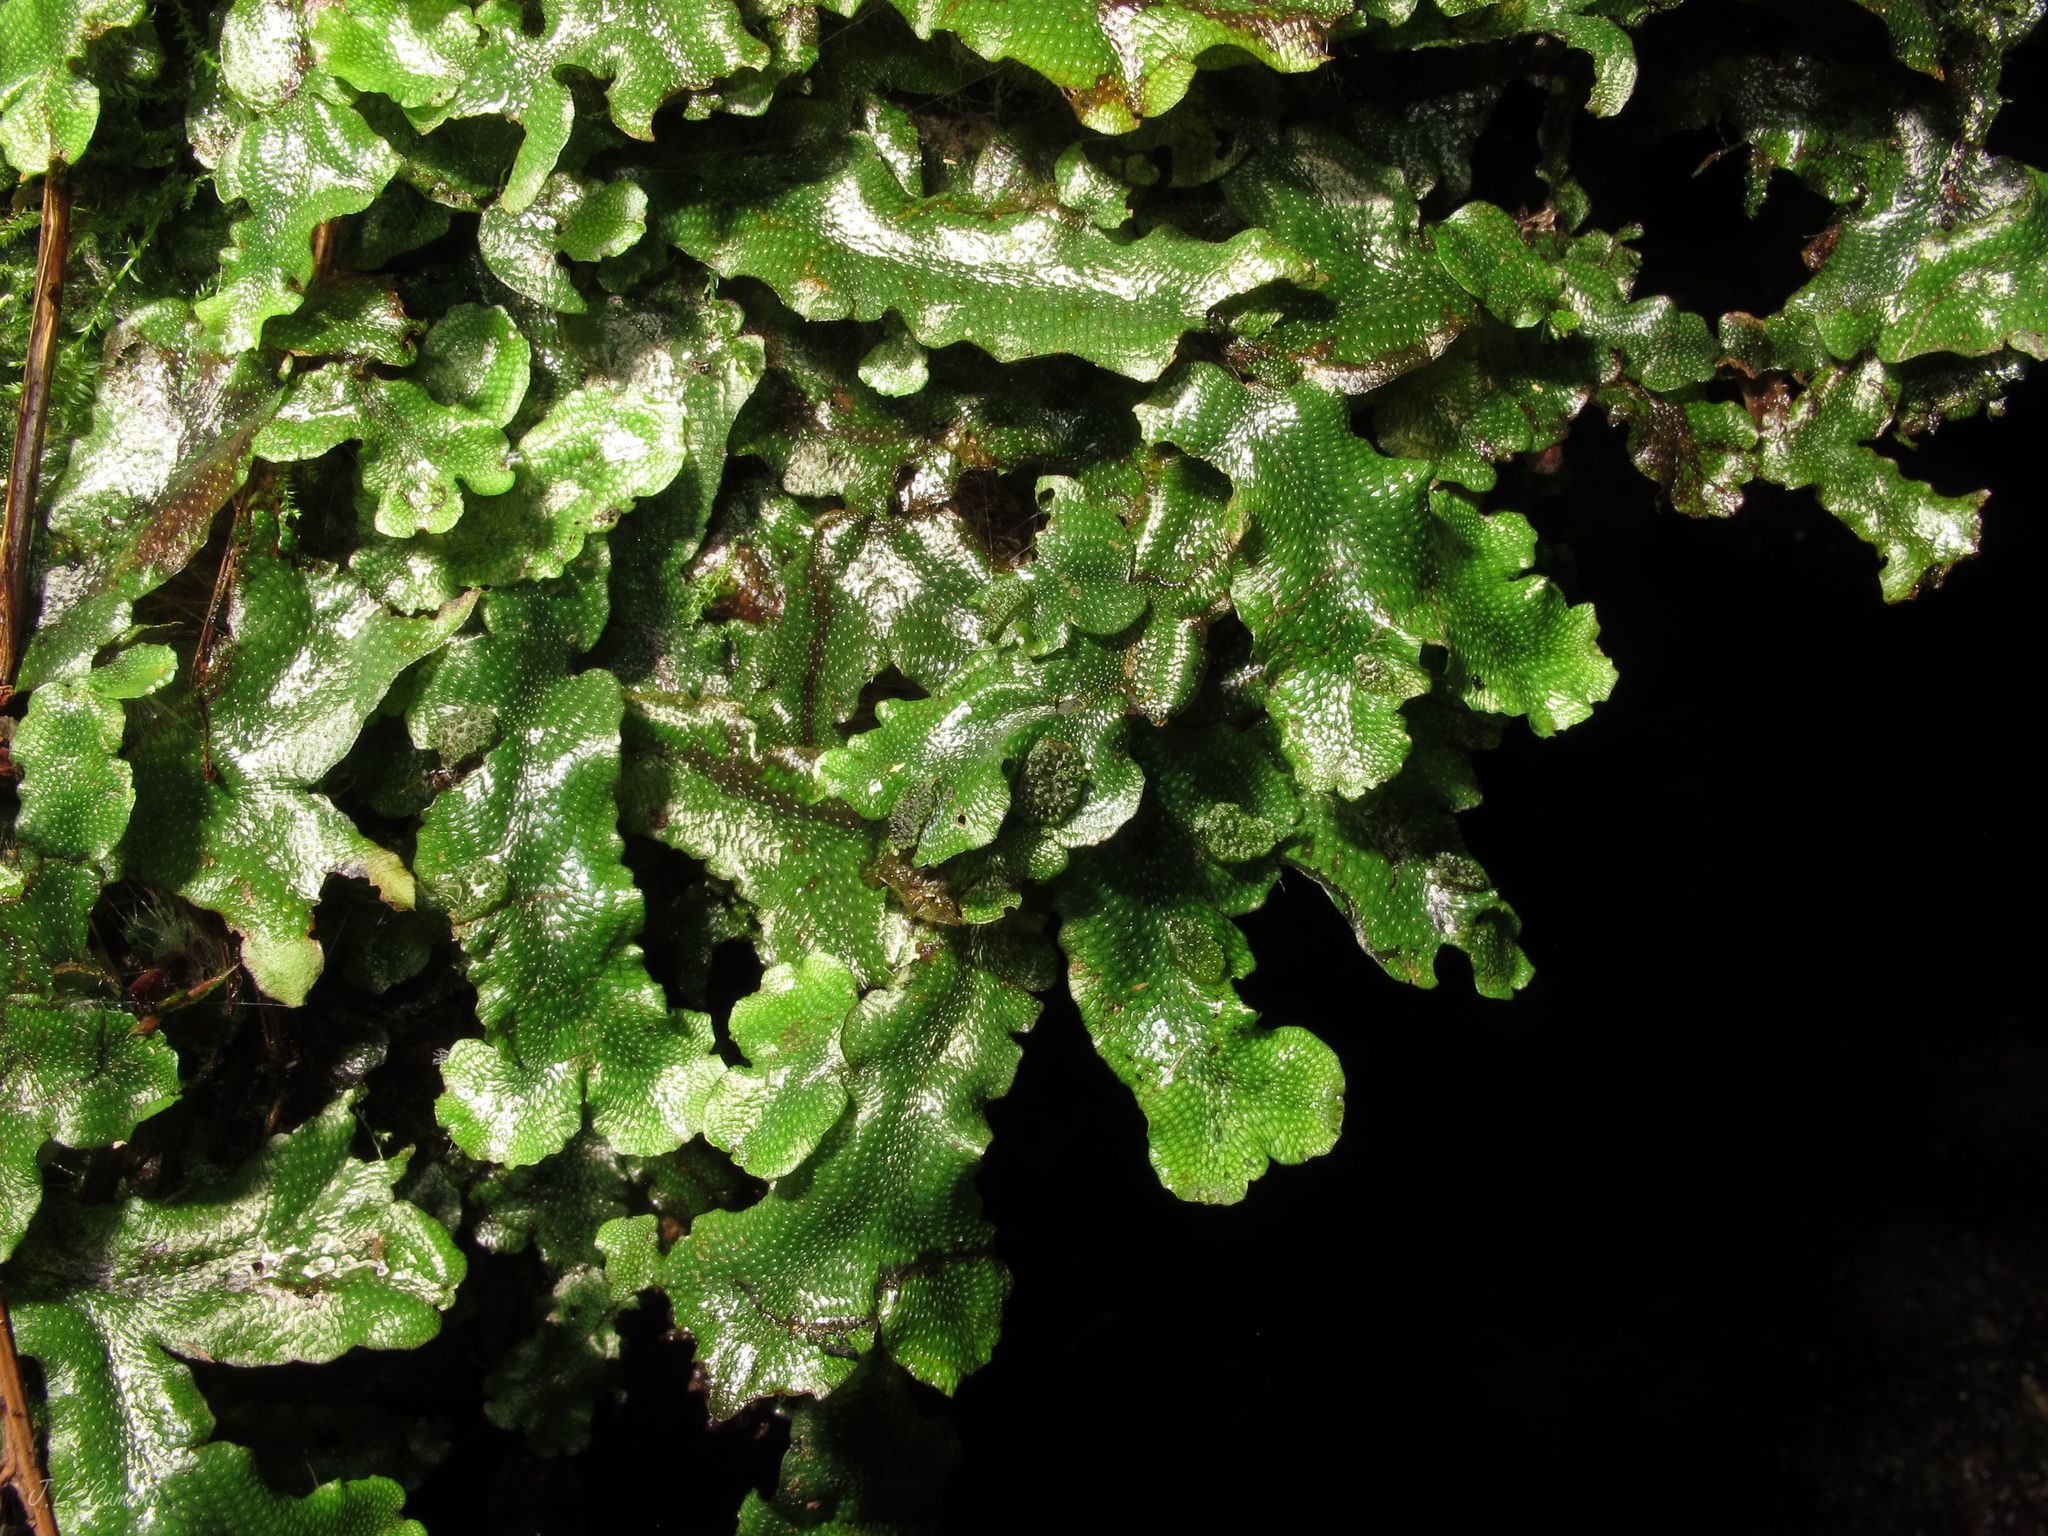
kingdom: Plantae
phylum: Marchantiophyta
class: Marchantiopsida
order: Marchantiales
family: Conocephalaceae
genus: Conocephalum
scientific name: Conocephalum conicum
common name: Great scented liverwort
